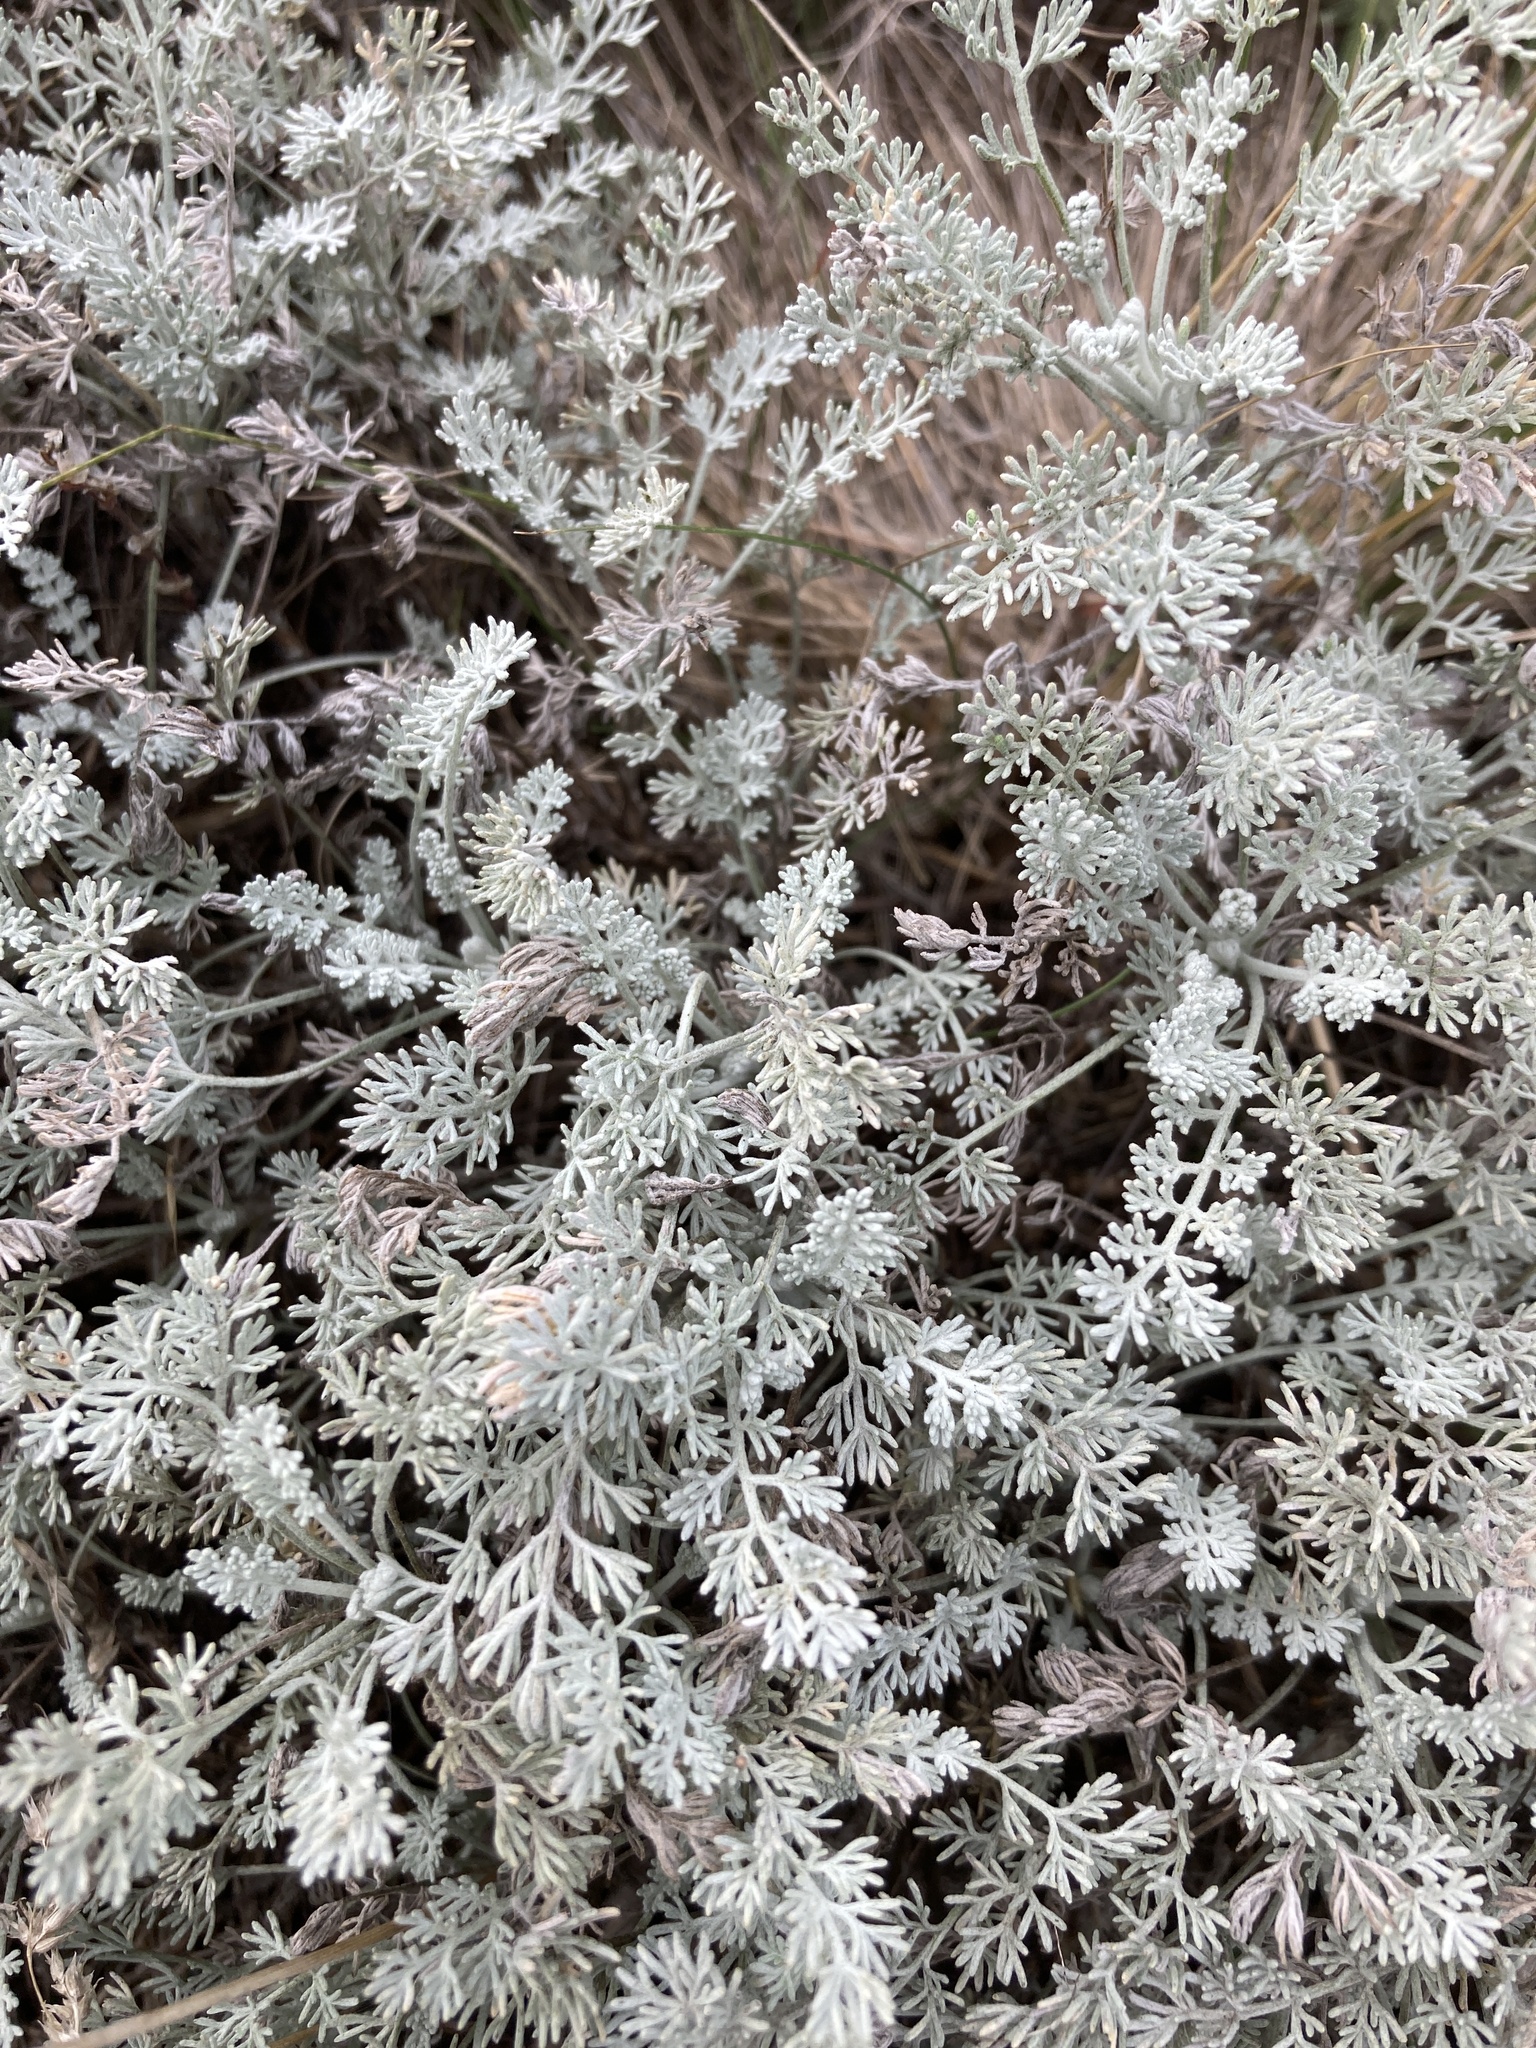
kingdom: Plantae
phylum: Tracheophyta
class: Magnoliopsida
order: Asterales
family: Asteraceae
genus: Artemisia
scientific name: Artemisia santonicum
